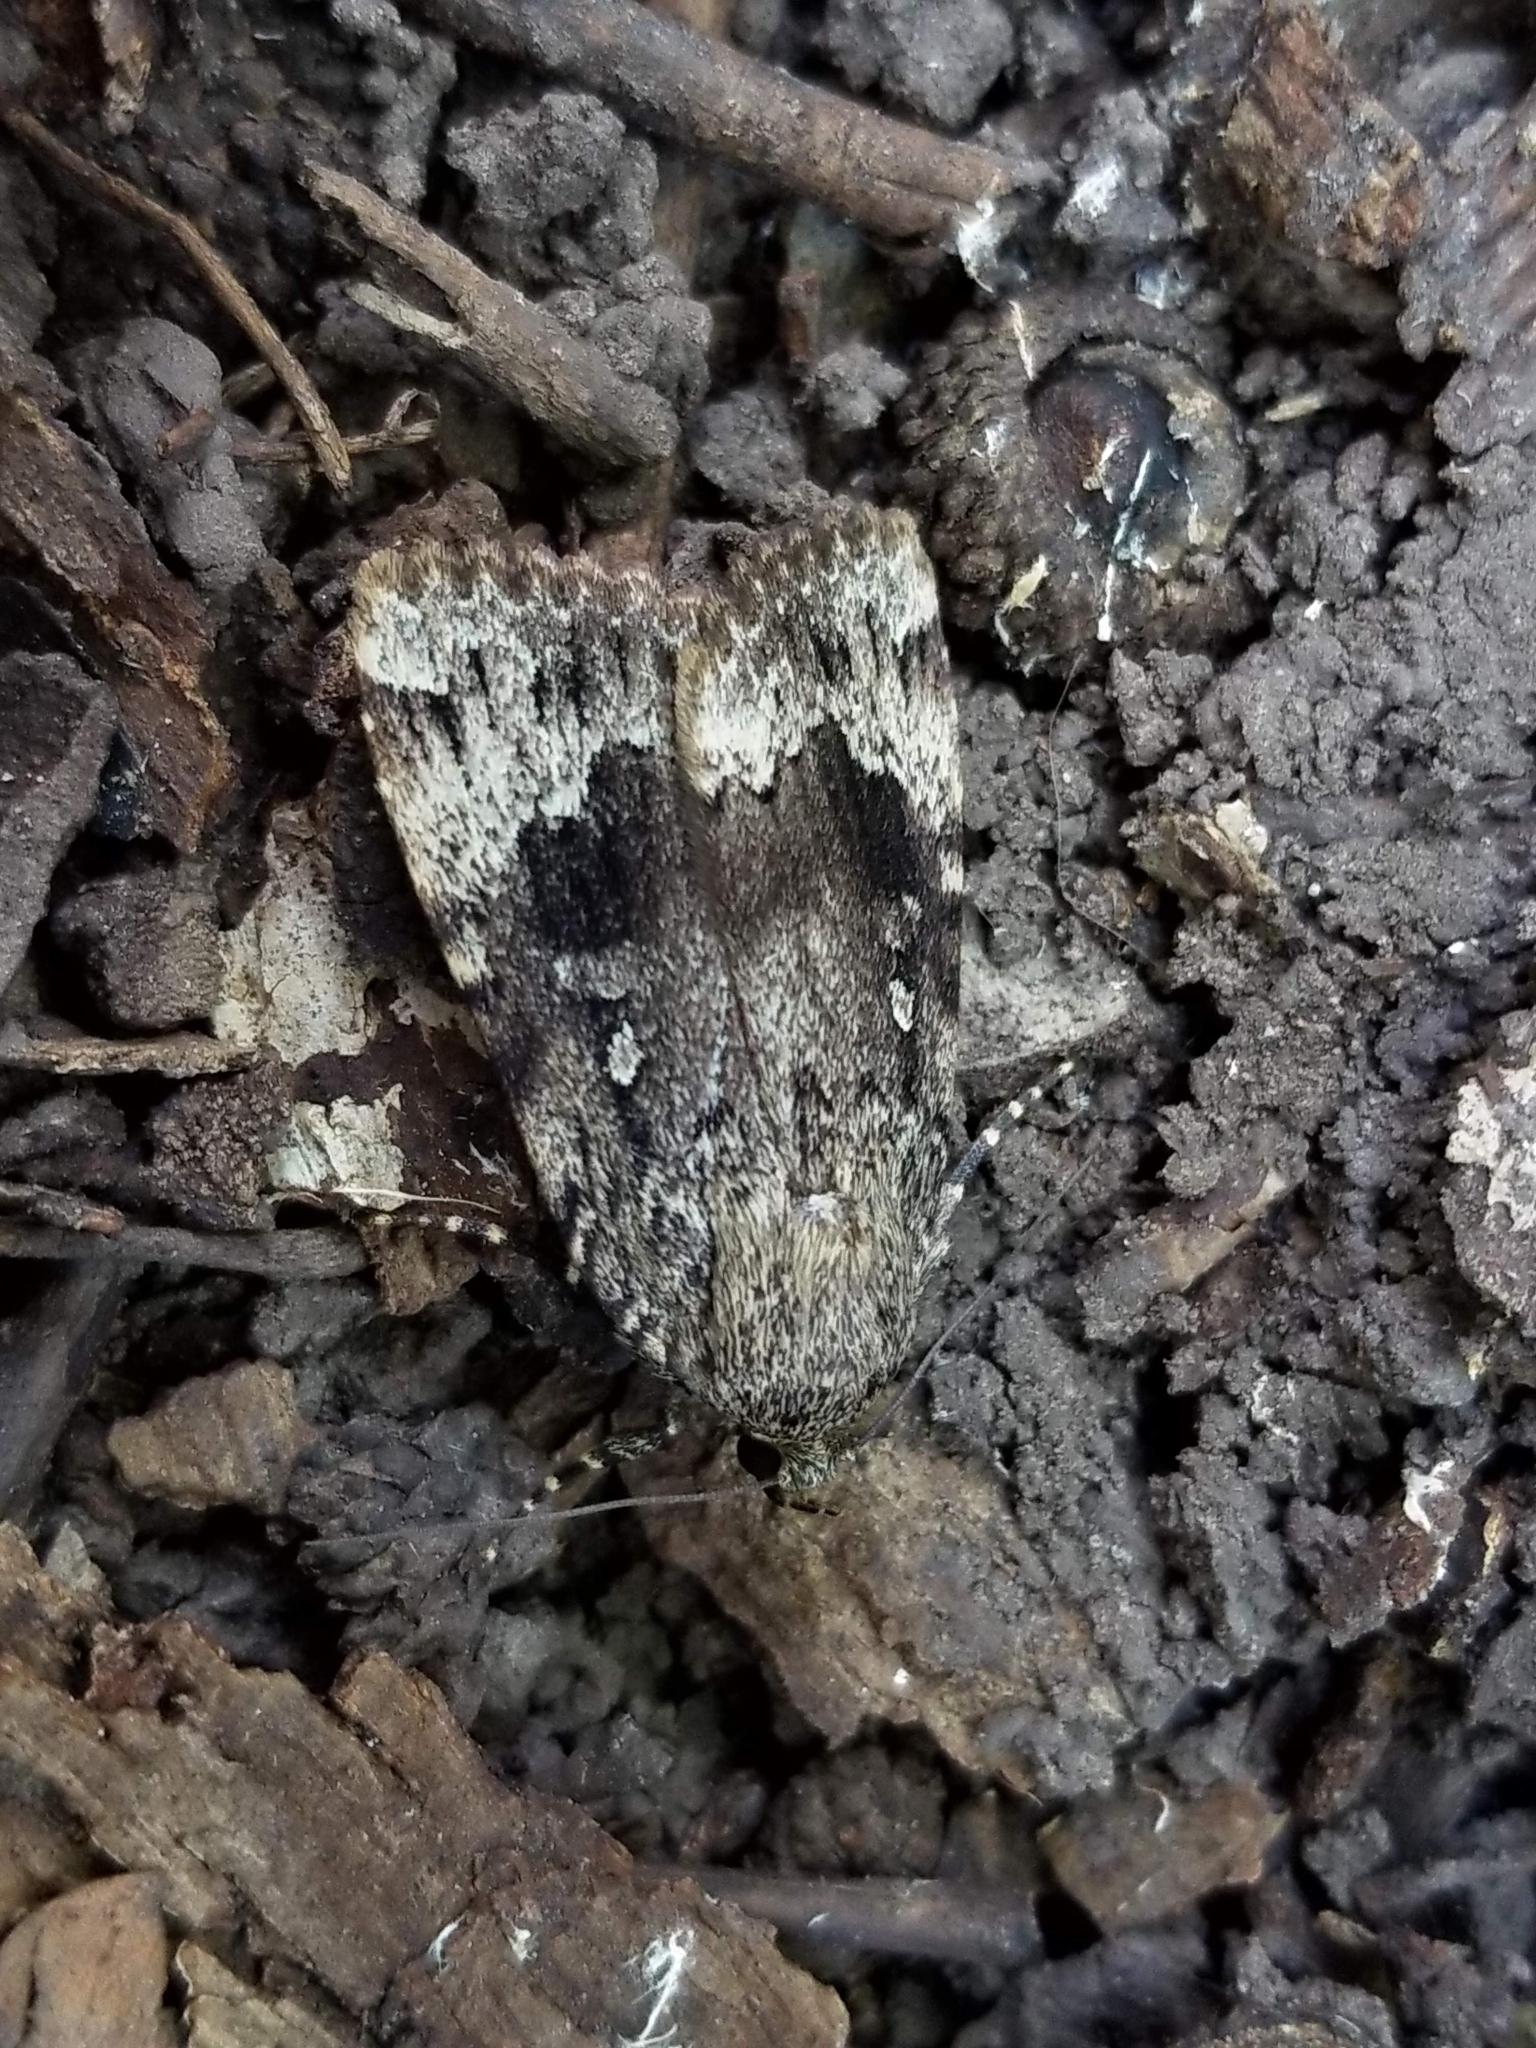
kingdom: Animalia
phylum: Arthropoda
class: Insecta
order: Lepidoptera
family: Noctuidae
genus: Amphipyra
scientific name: Amphipyra pyramidoides
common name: American copper underwing
